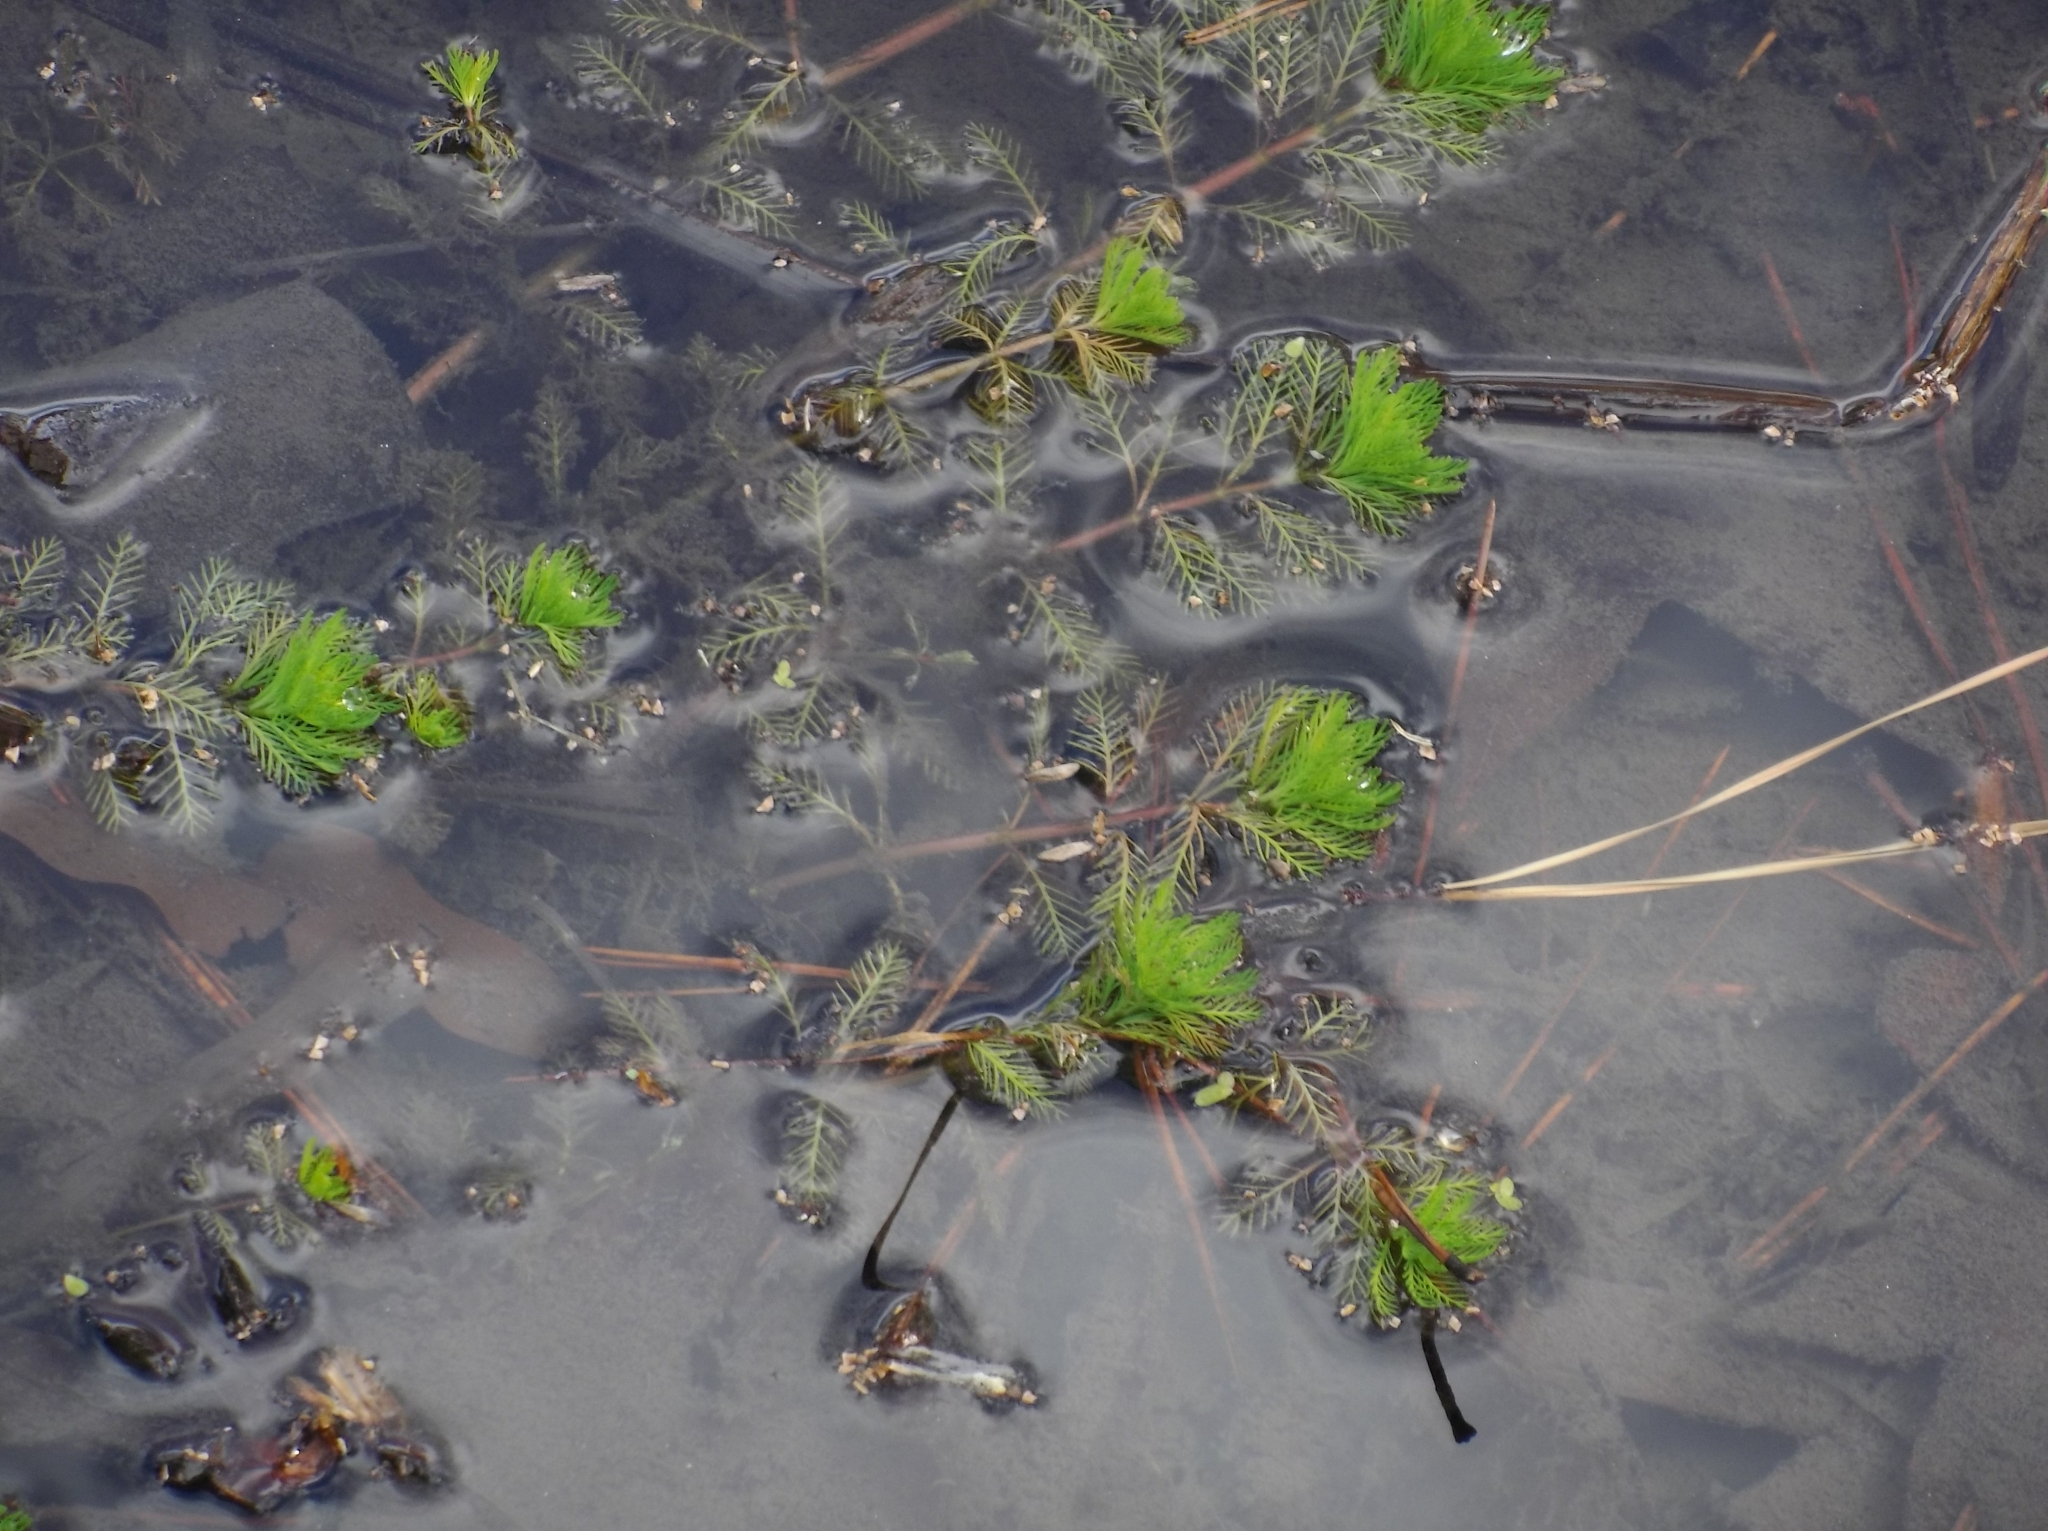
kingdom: Plantae
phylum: Tracheophyta
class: Magnoliopsida
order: Saxifragales
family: Haloragaceae
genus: Myriophyllum
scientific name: Myriophyllum aquaticum
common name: Parrot's feather
